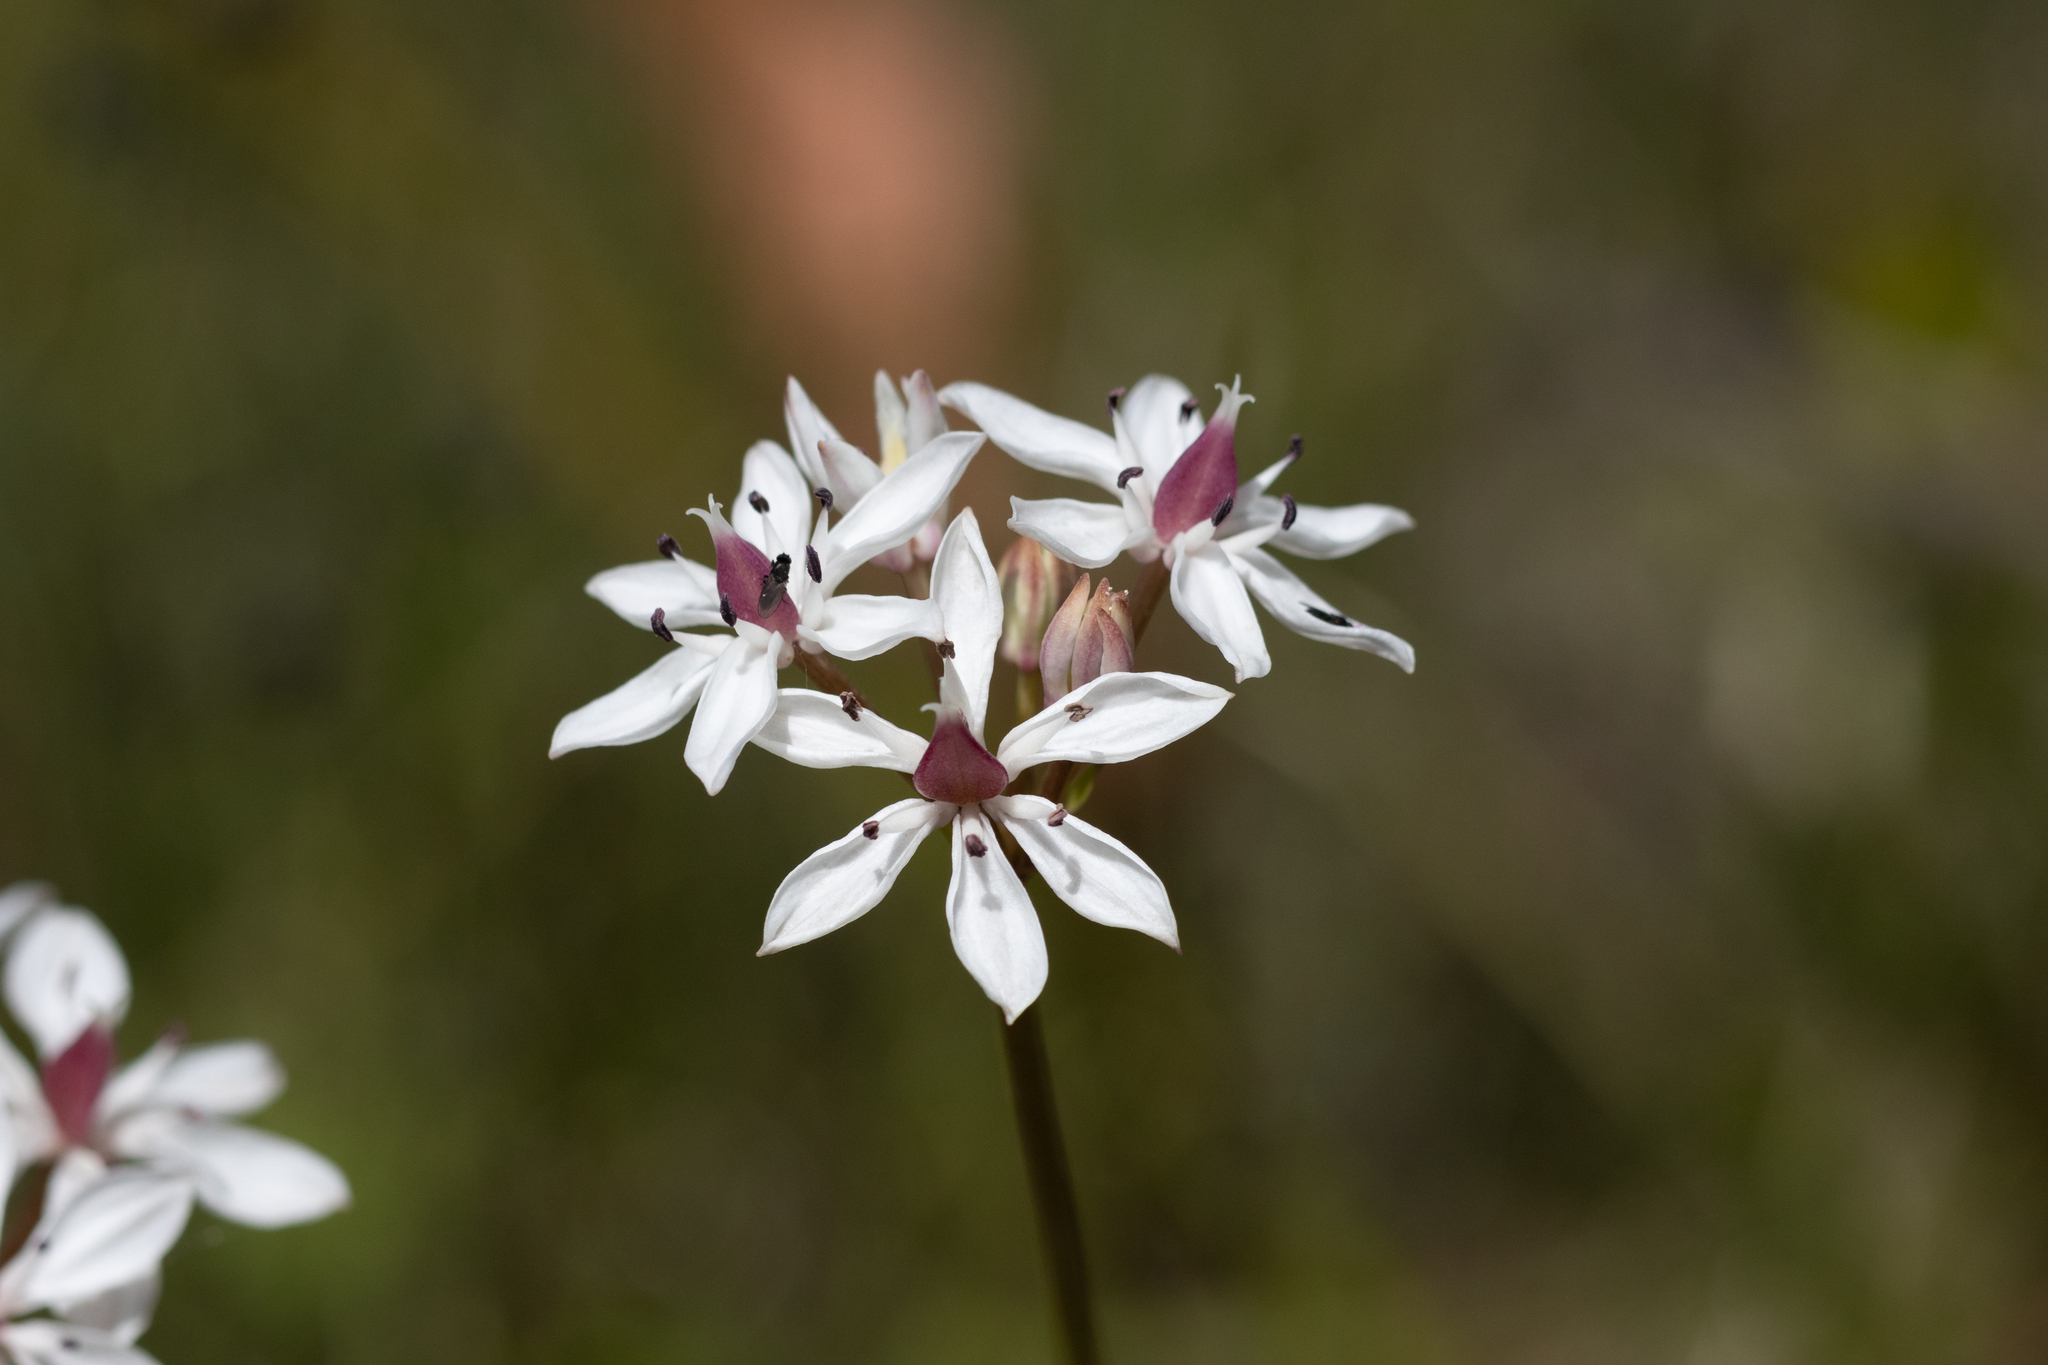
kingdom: Plantae
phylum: Tracheophyta
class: Liliopsida
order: Liliales
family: Colchicaceae
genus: Burchardia
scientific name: Burchardia umbellata
